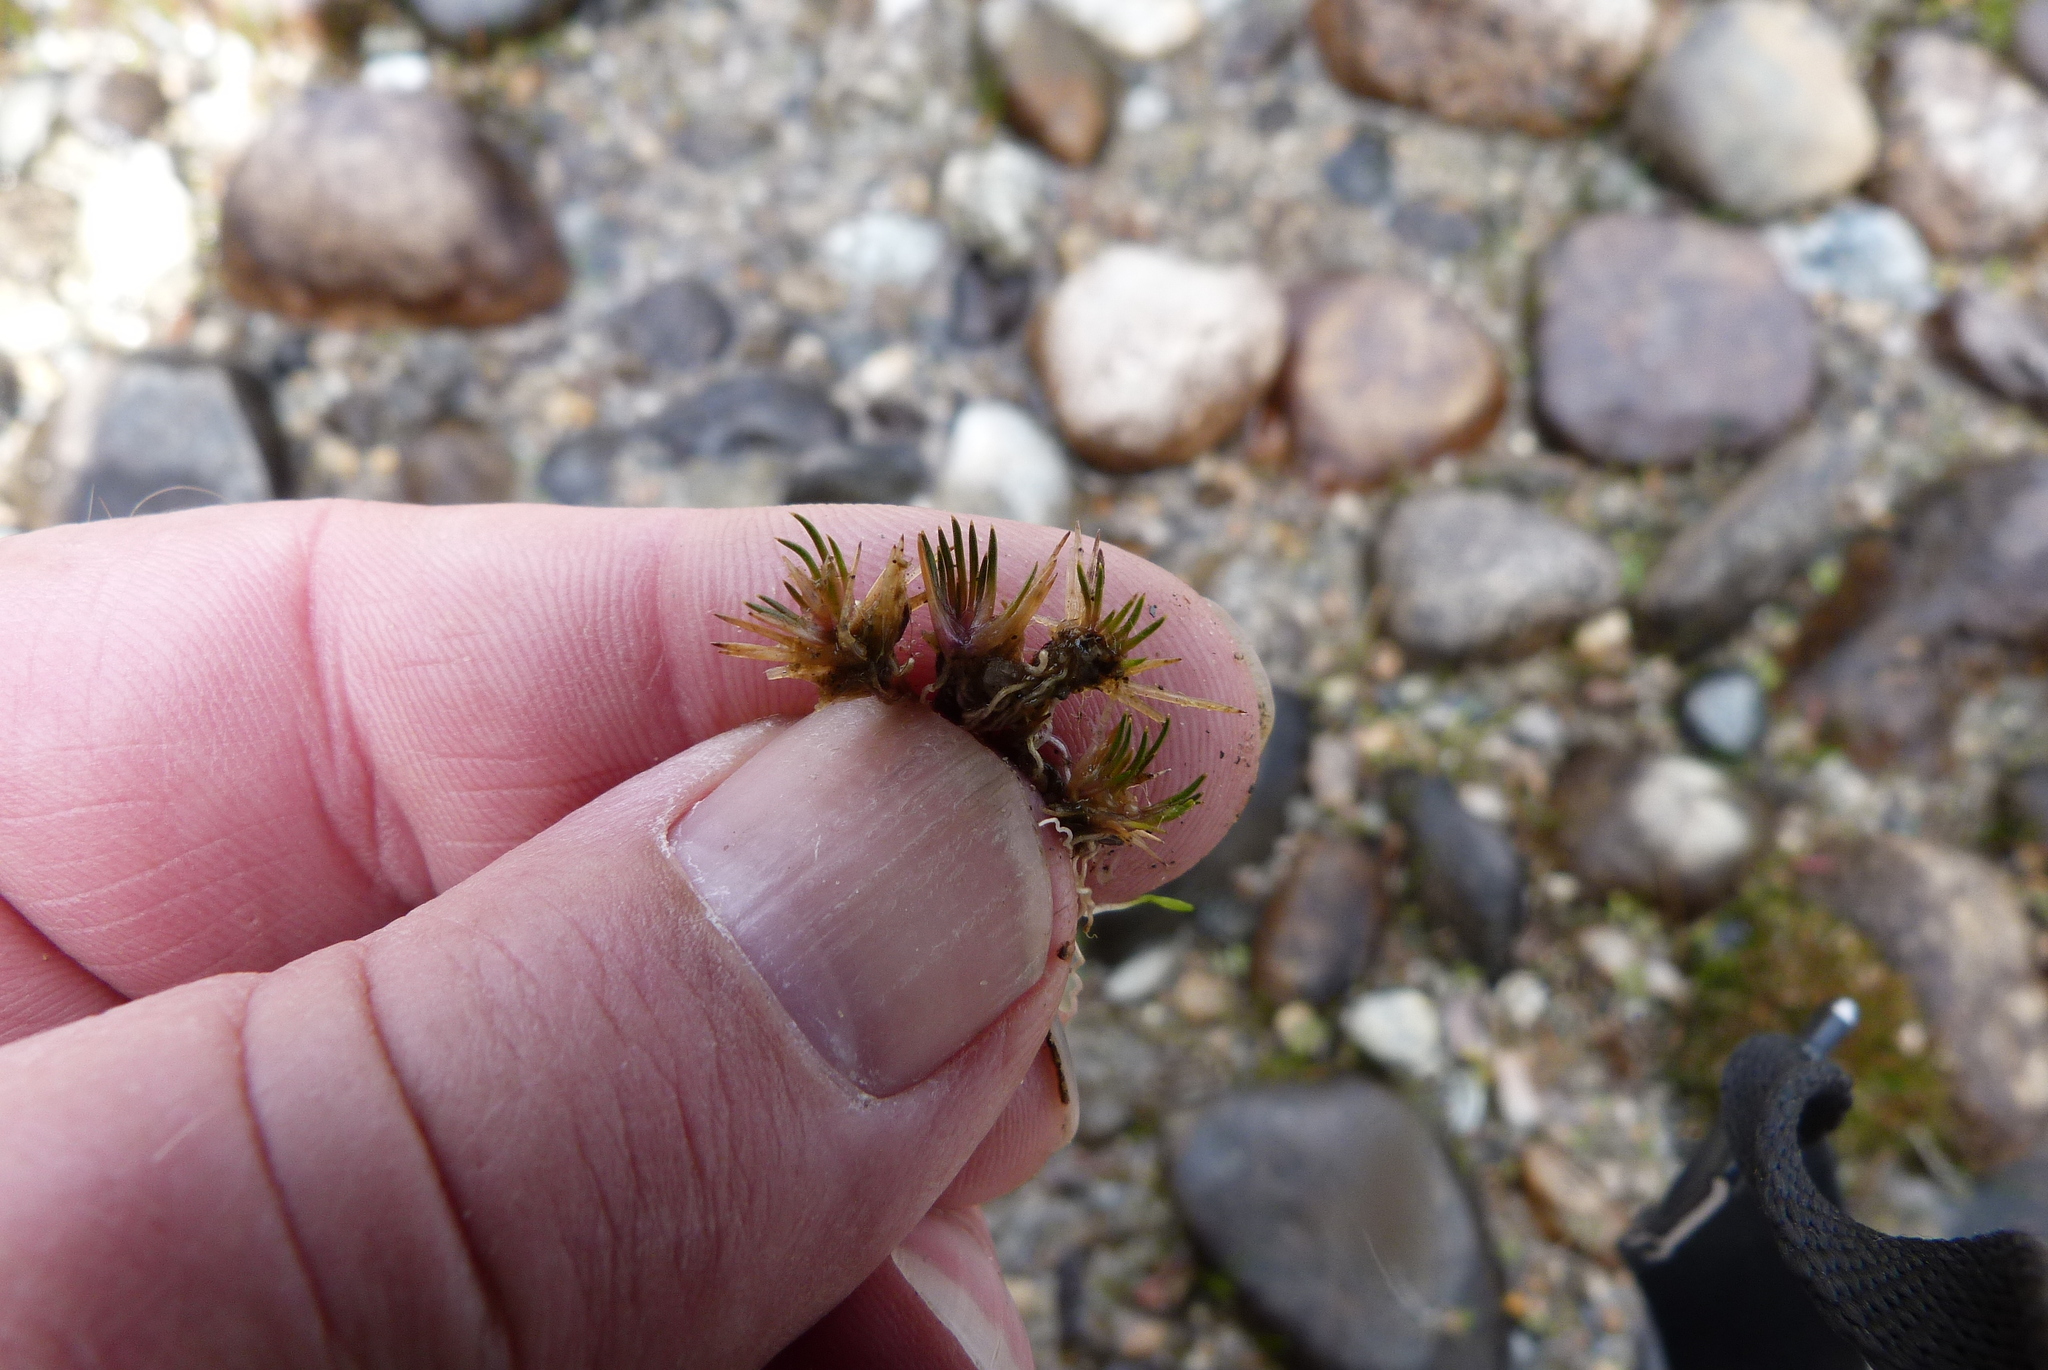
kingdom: Plantae
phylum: Tracheophyta
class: Liliopsida
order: Poales
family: Restionaceae
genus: Centrolepis
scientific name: Centrolepis pallida
